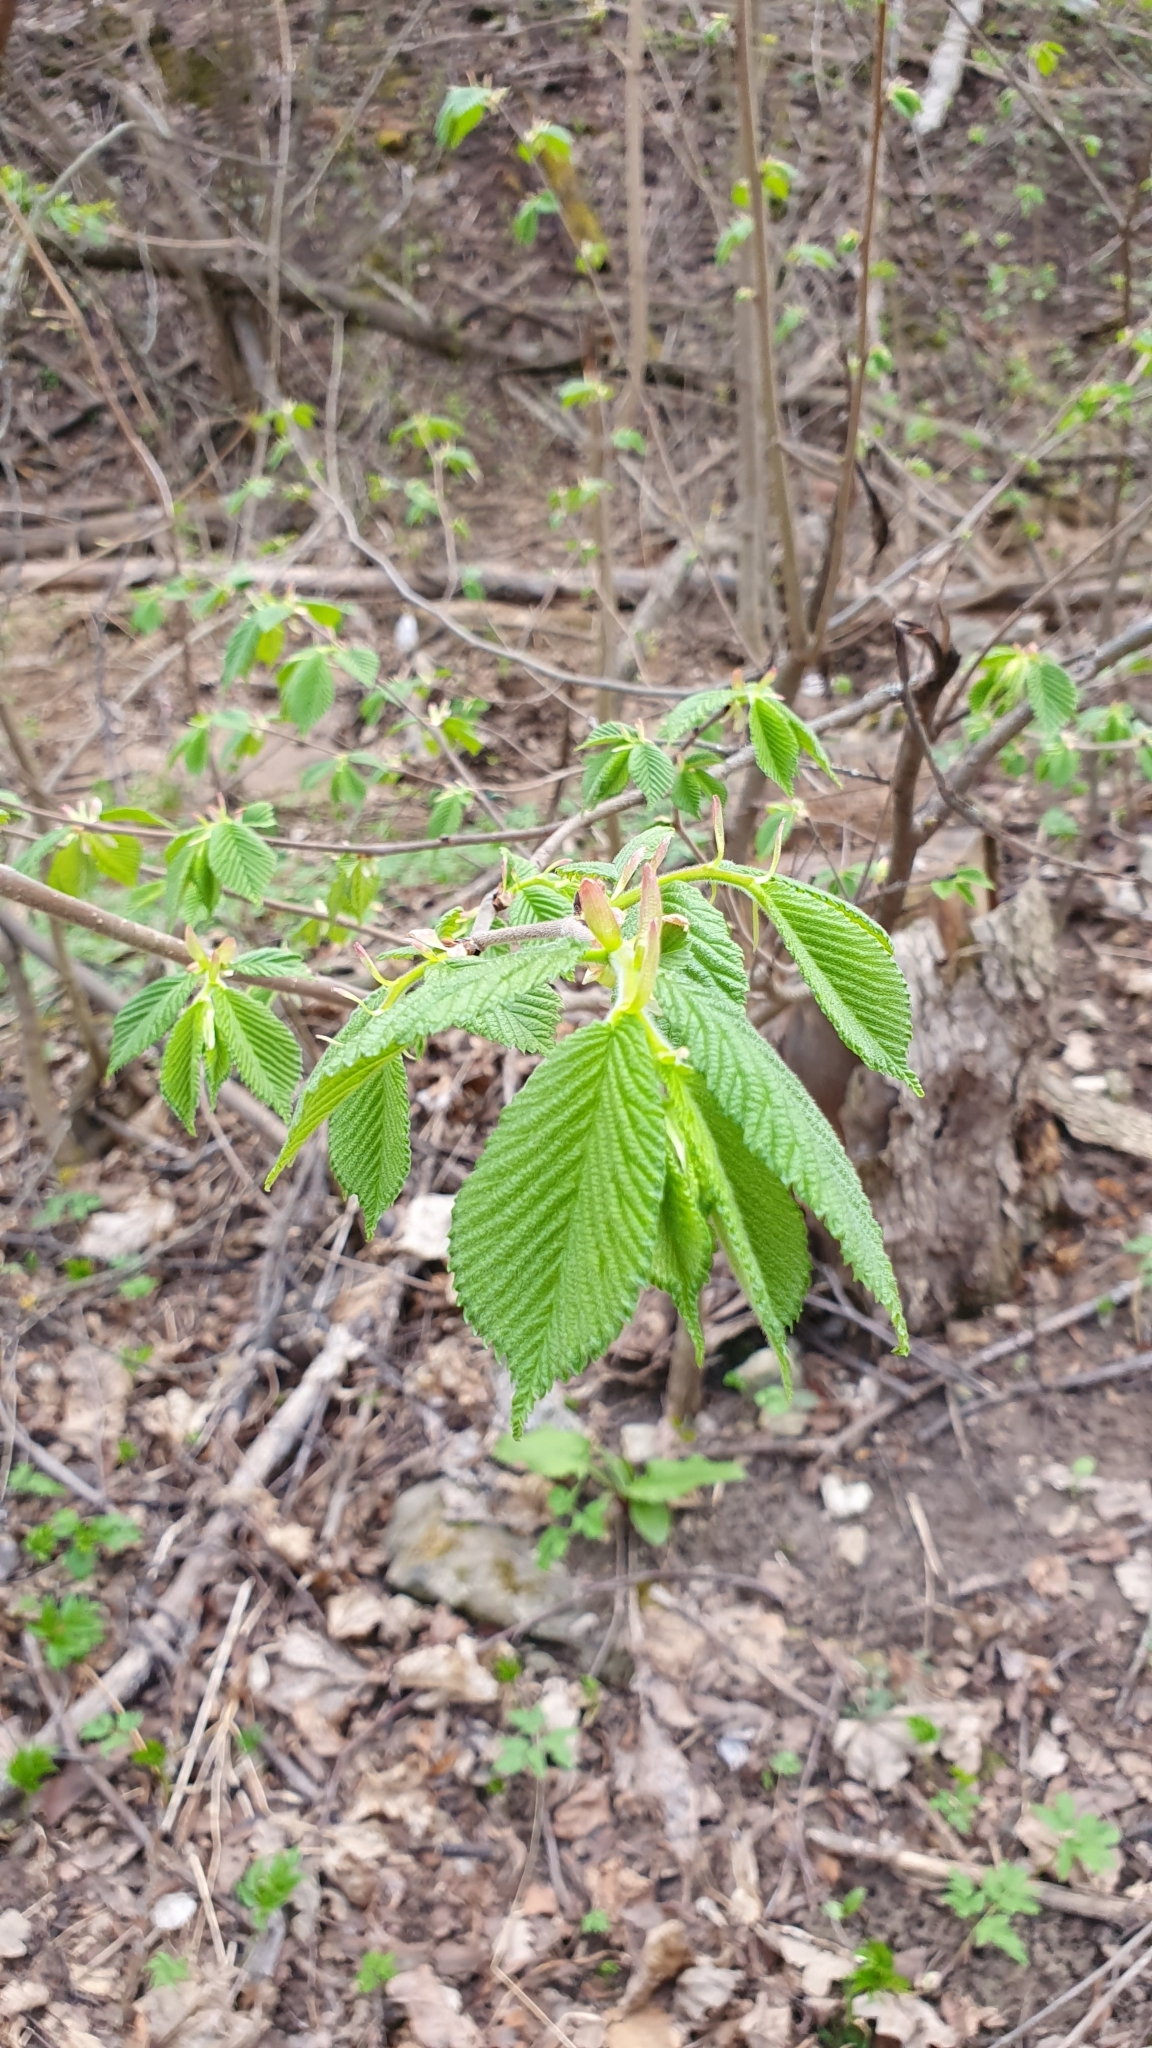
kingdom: Plantae
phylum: Tracheophyta
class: Magnoliopsida
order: Fagales
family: Betulaceae
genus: Corylus
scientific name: Corylus avellana
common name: European hazel
